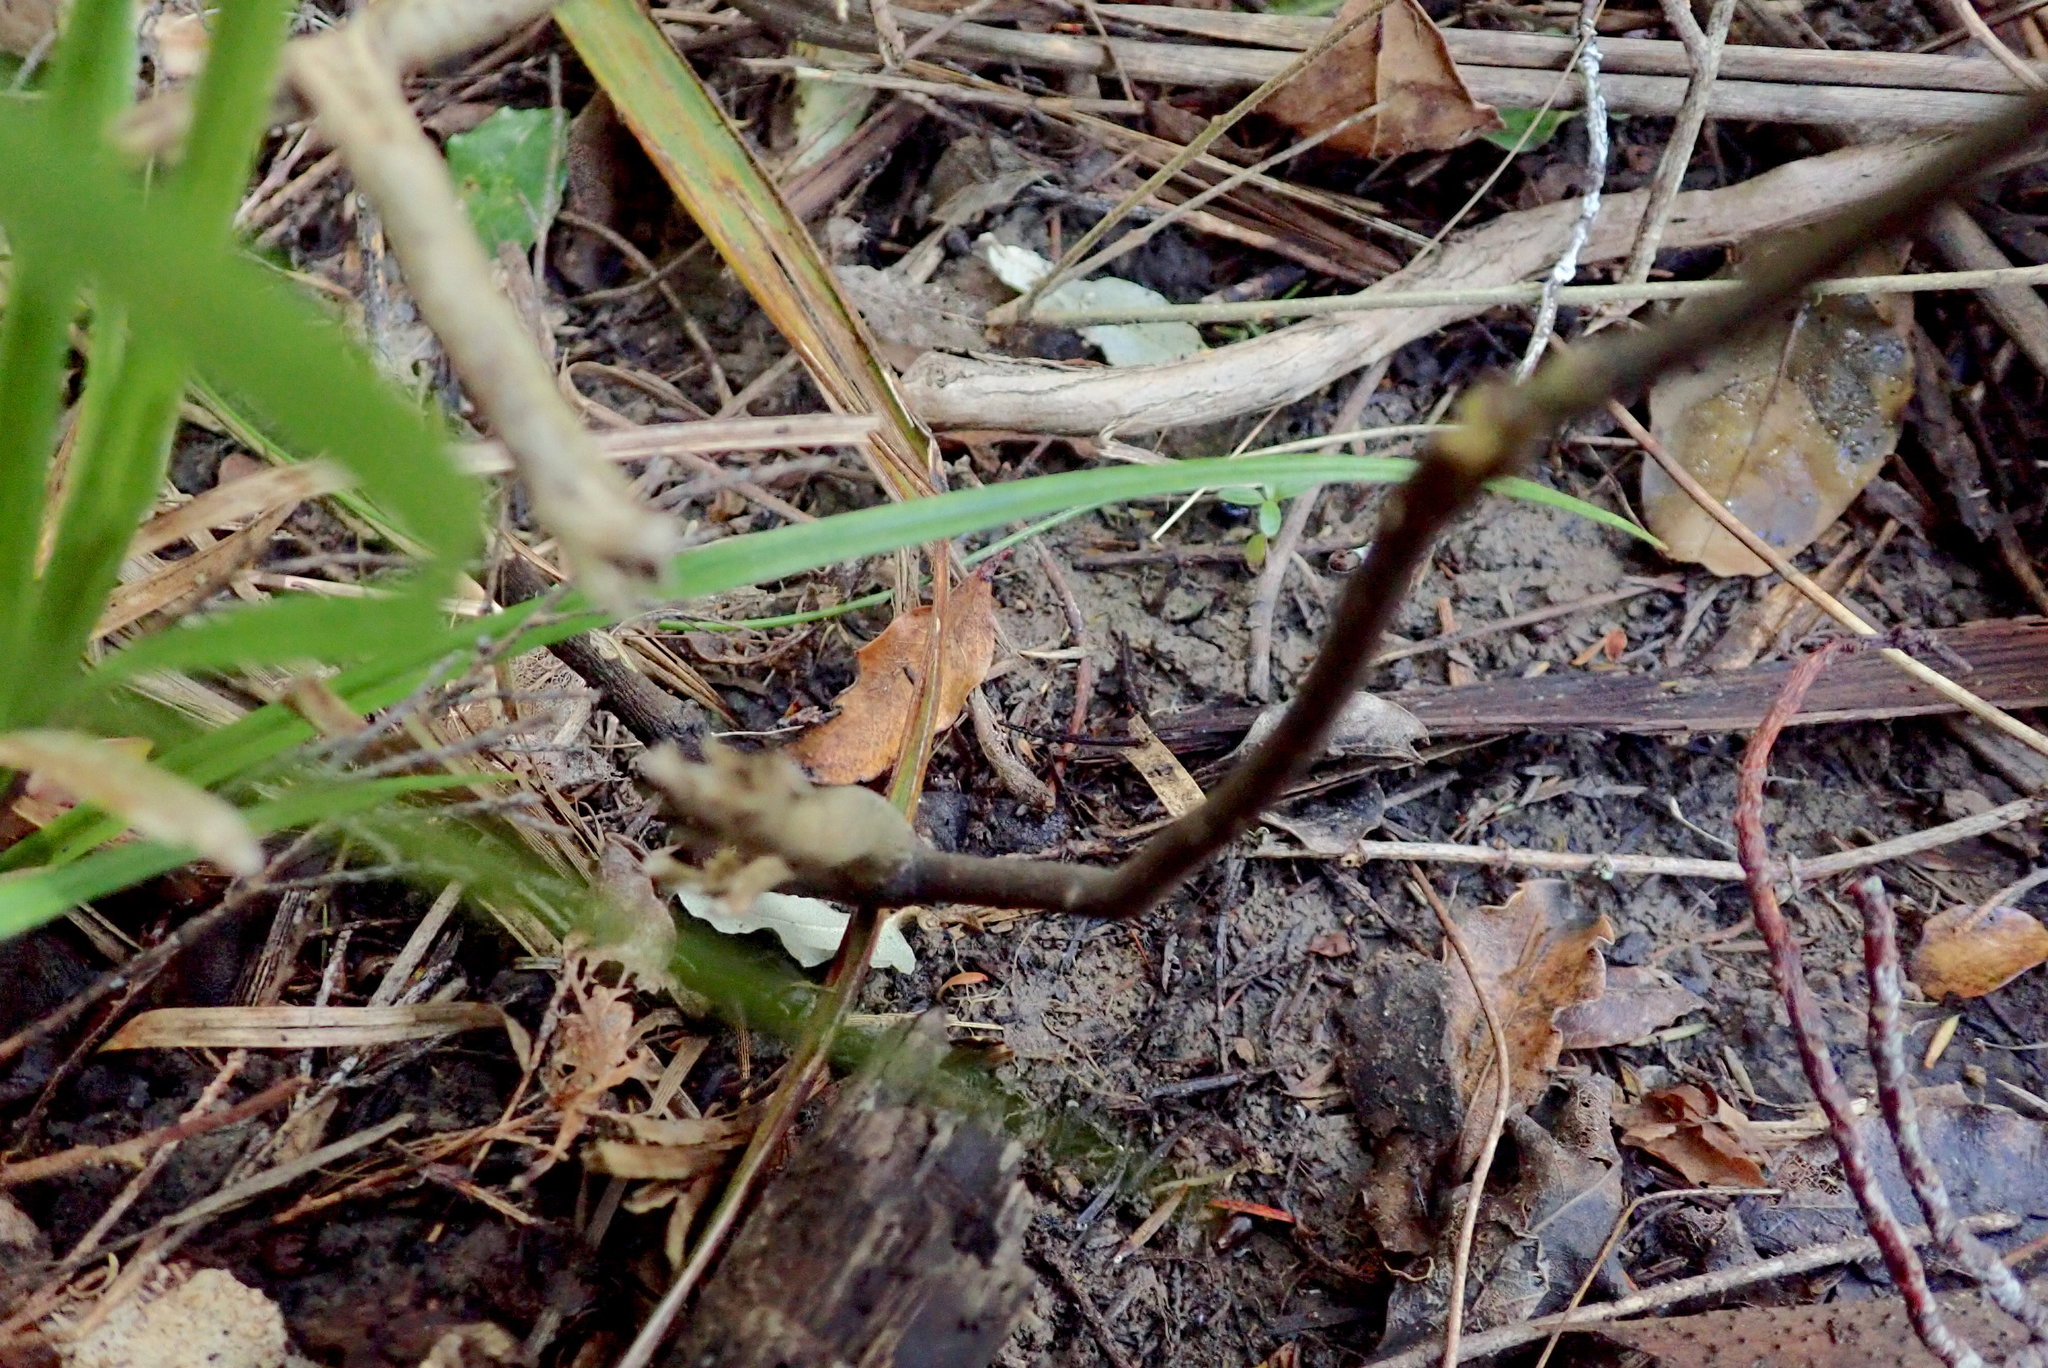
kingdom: Plantae
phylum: Tracheophyta
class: Magnoliopsida
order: Rosales
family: Elaeagnaceae
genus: Elaeagnus
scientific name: Elaeagnus reflexa
